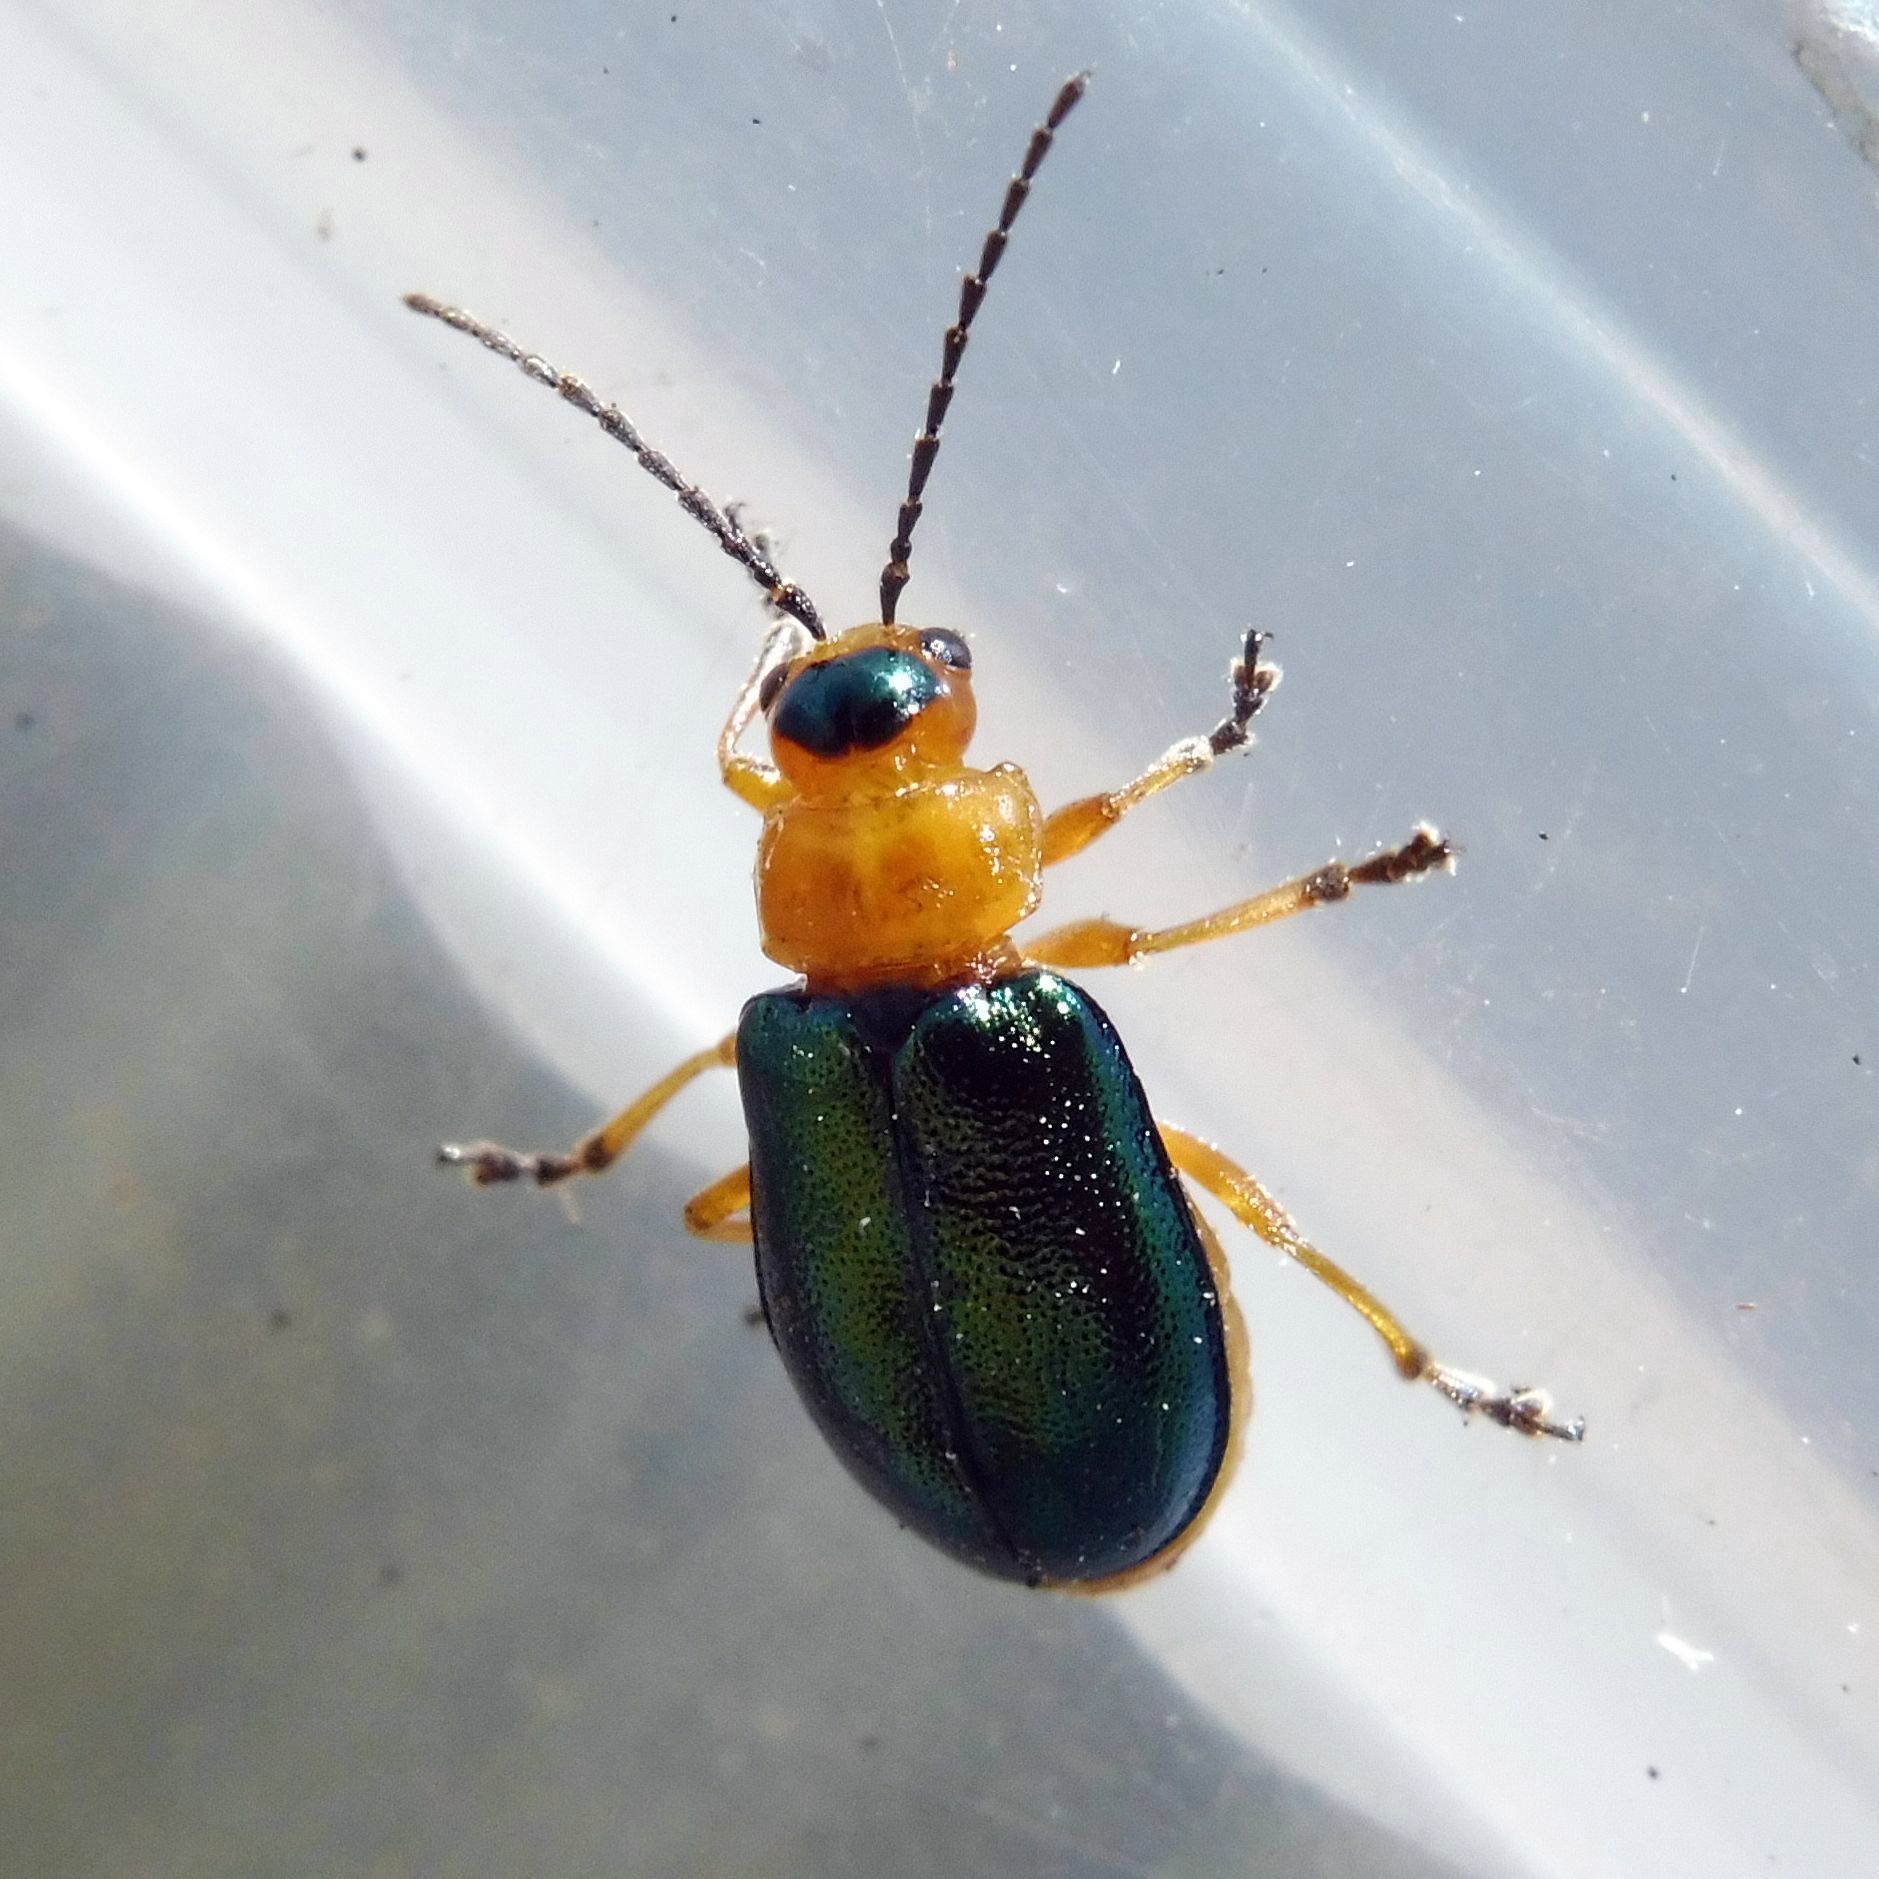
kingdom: Animalia
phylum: Arthropoda
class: Insecta
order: Coleoptera
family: Chrysomelidae
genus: Sermylassa
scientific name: Sermylassa halensis
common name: Leaf beetle
